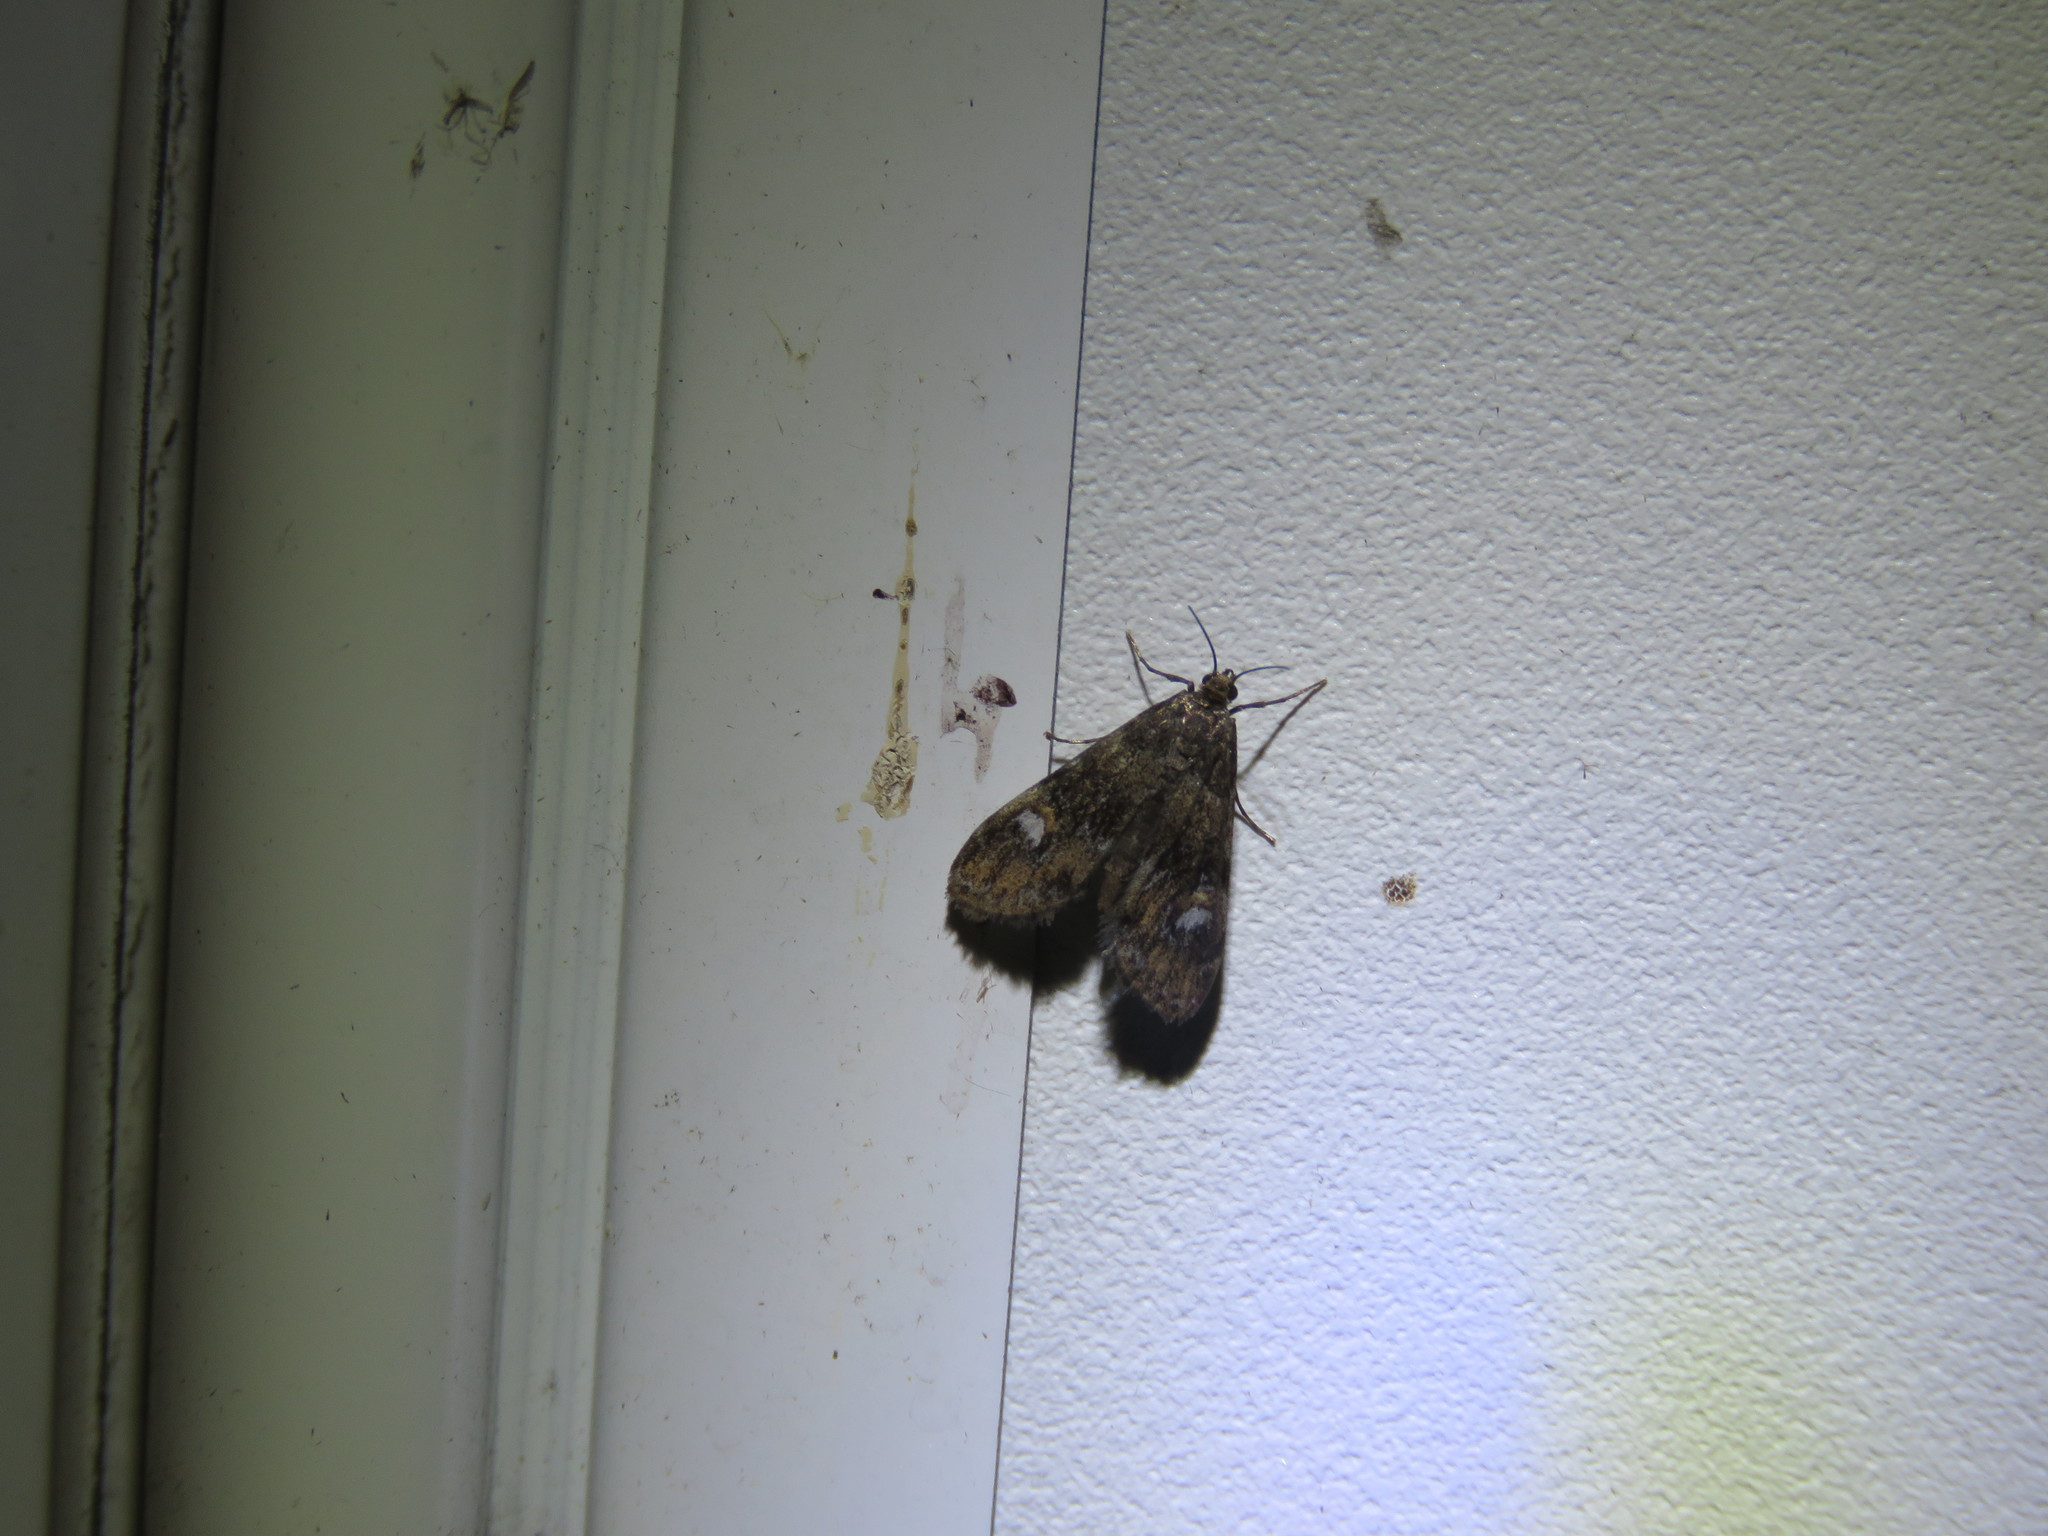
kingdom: Animalia
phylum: Arthropoda
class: Insecta
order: Lepidoptera
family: Crambidae
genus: Elophila
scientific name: Elophila tinealis
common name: Black duckweed moth
